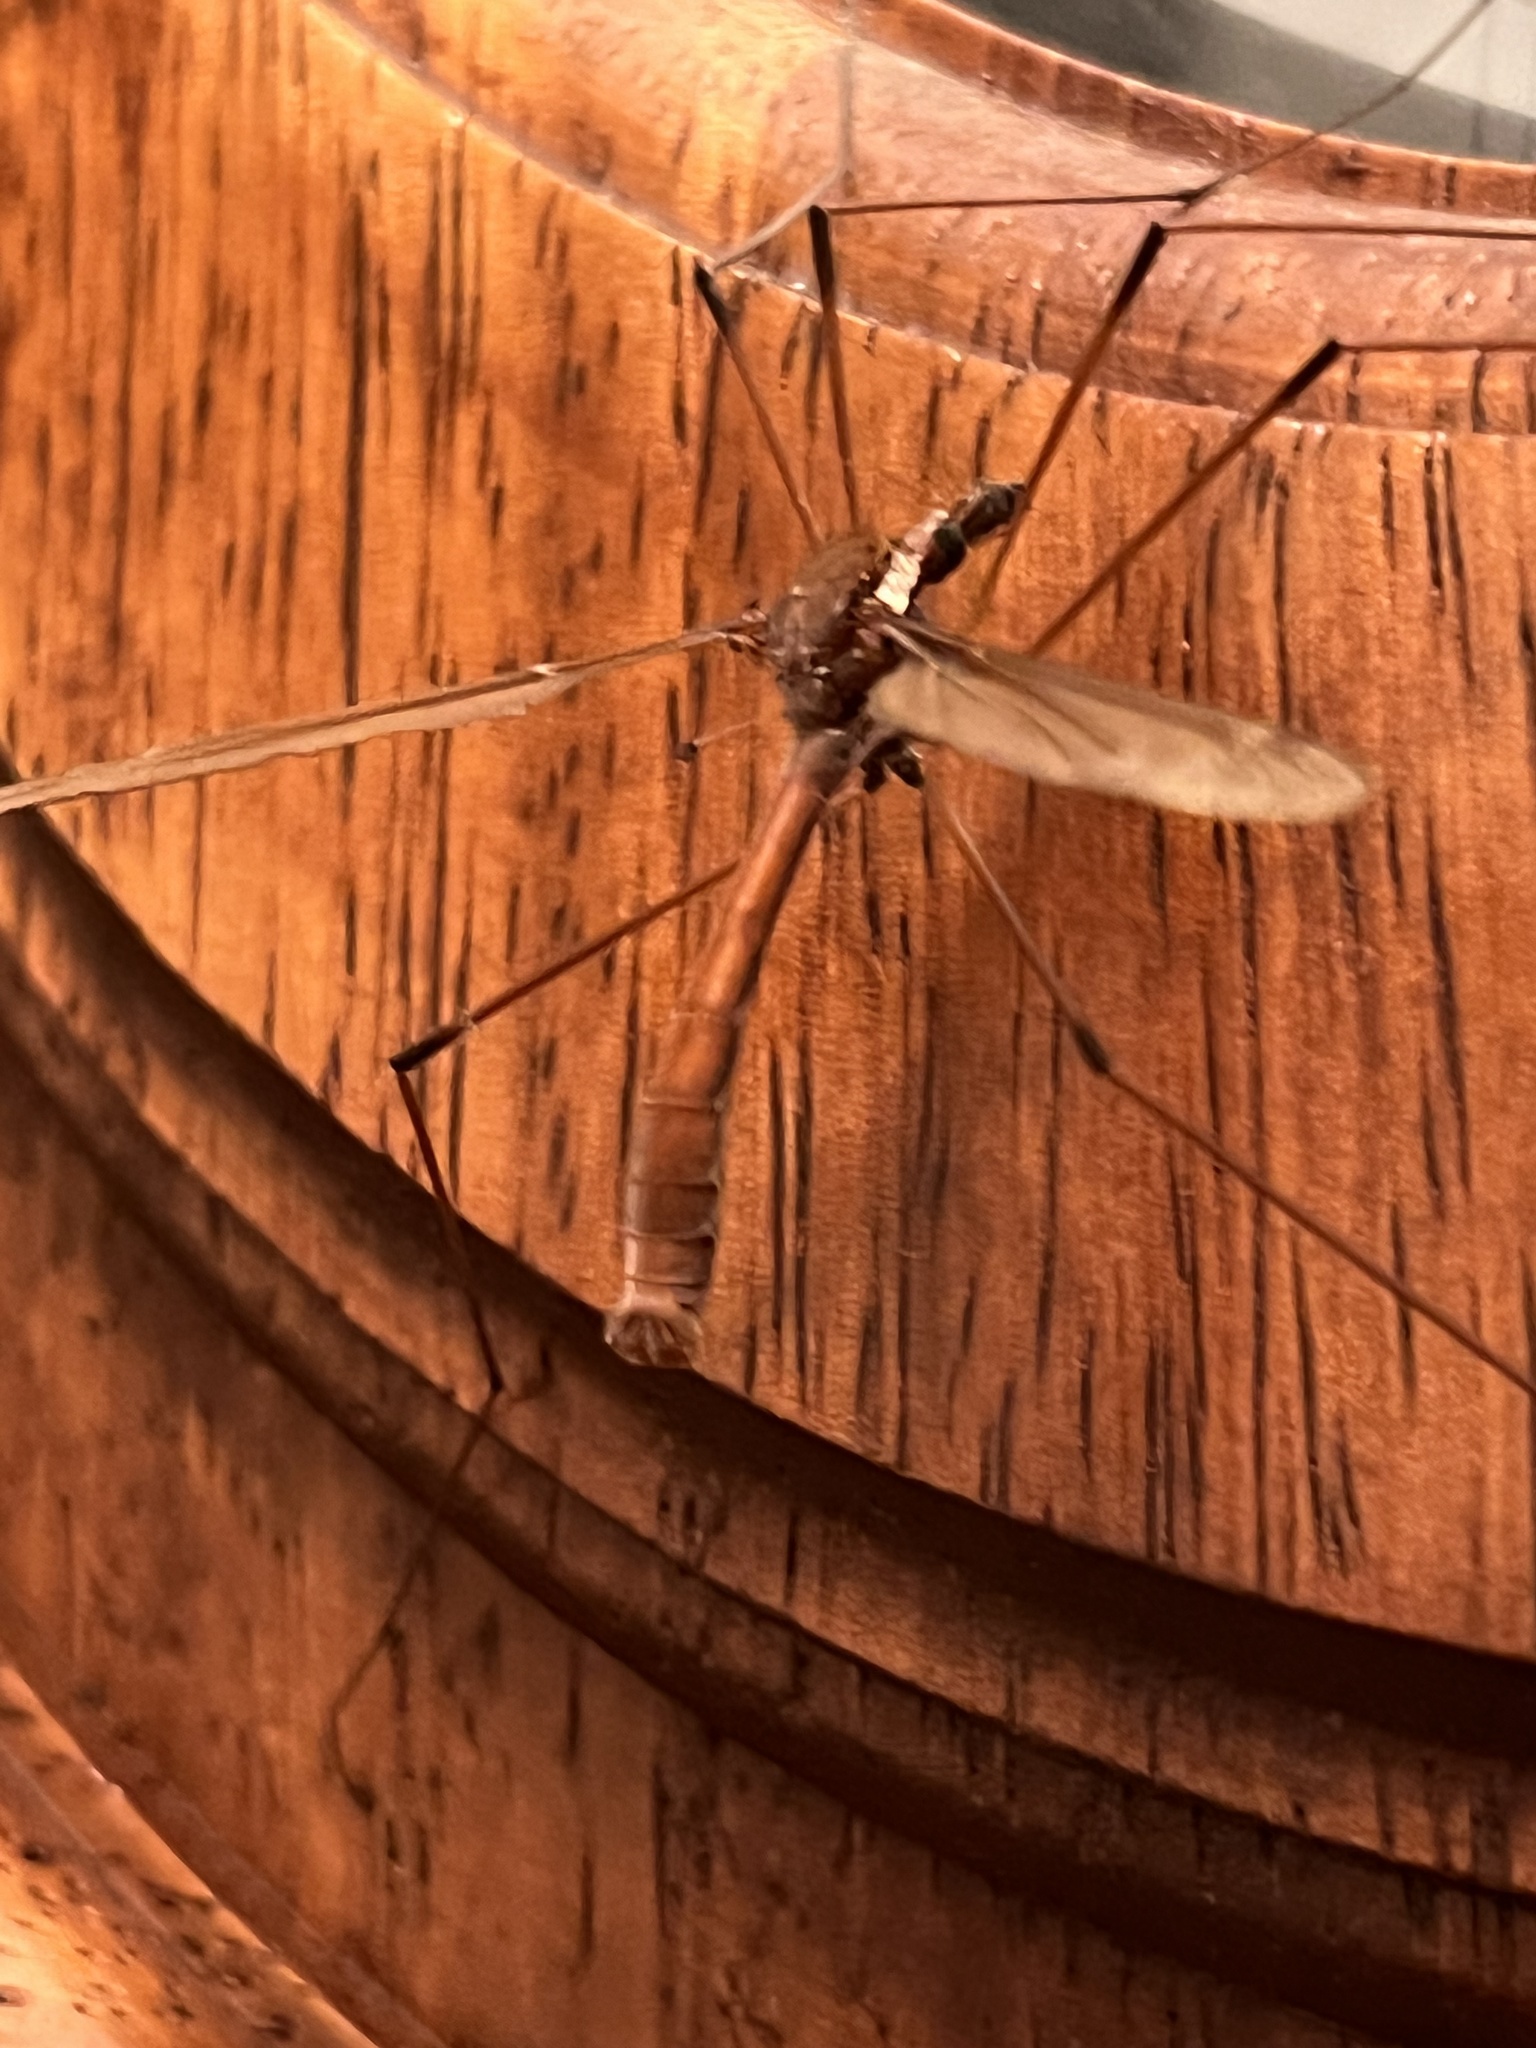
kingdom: Animalia
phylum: Arthropoda
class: Insecta
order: Diptera
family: Tipulidae
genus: Holorusia
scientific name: Holorusia hespera
